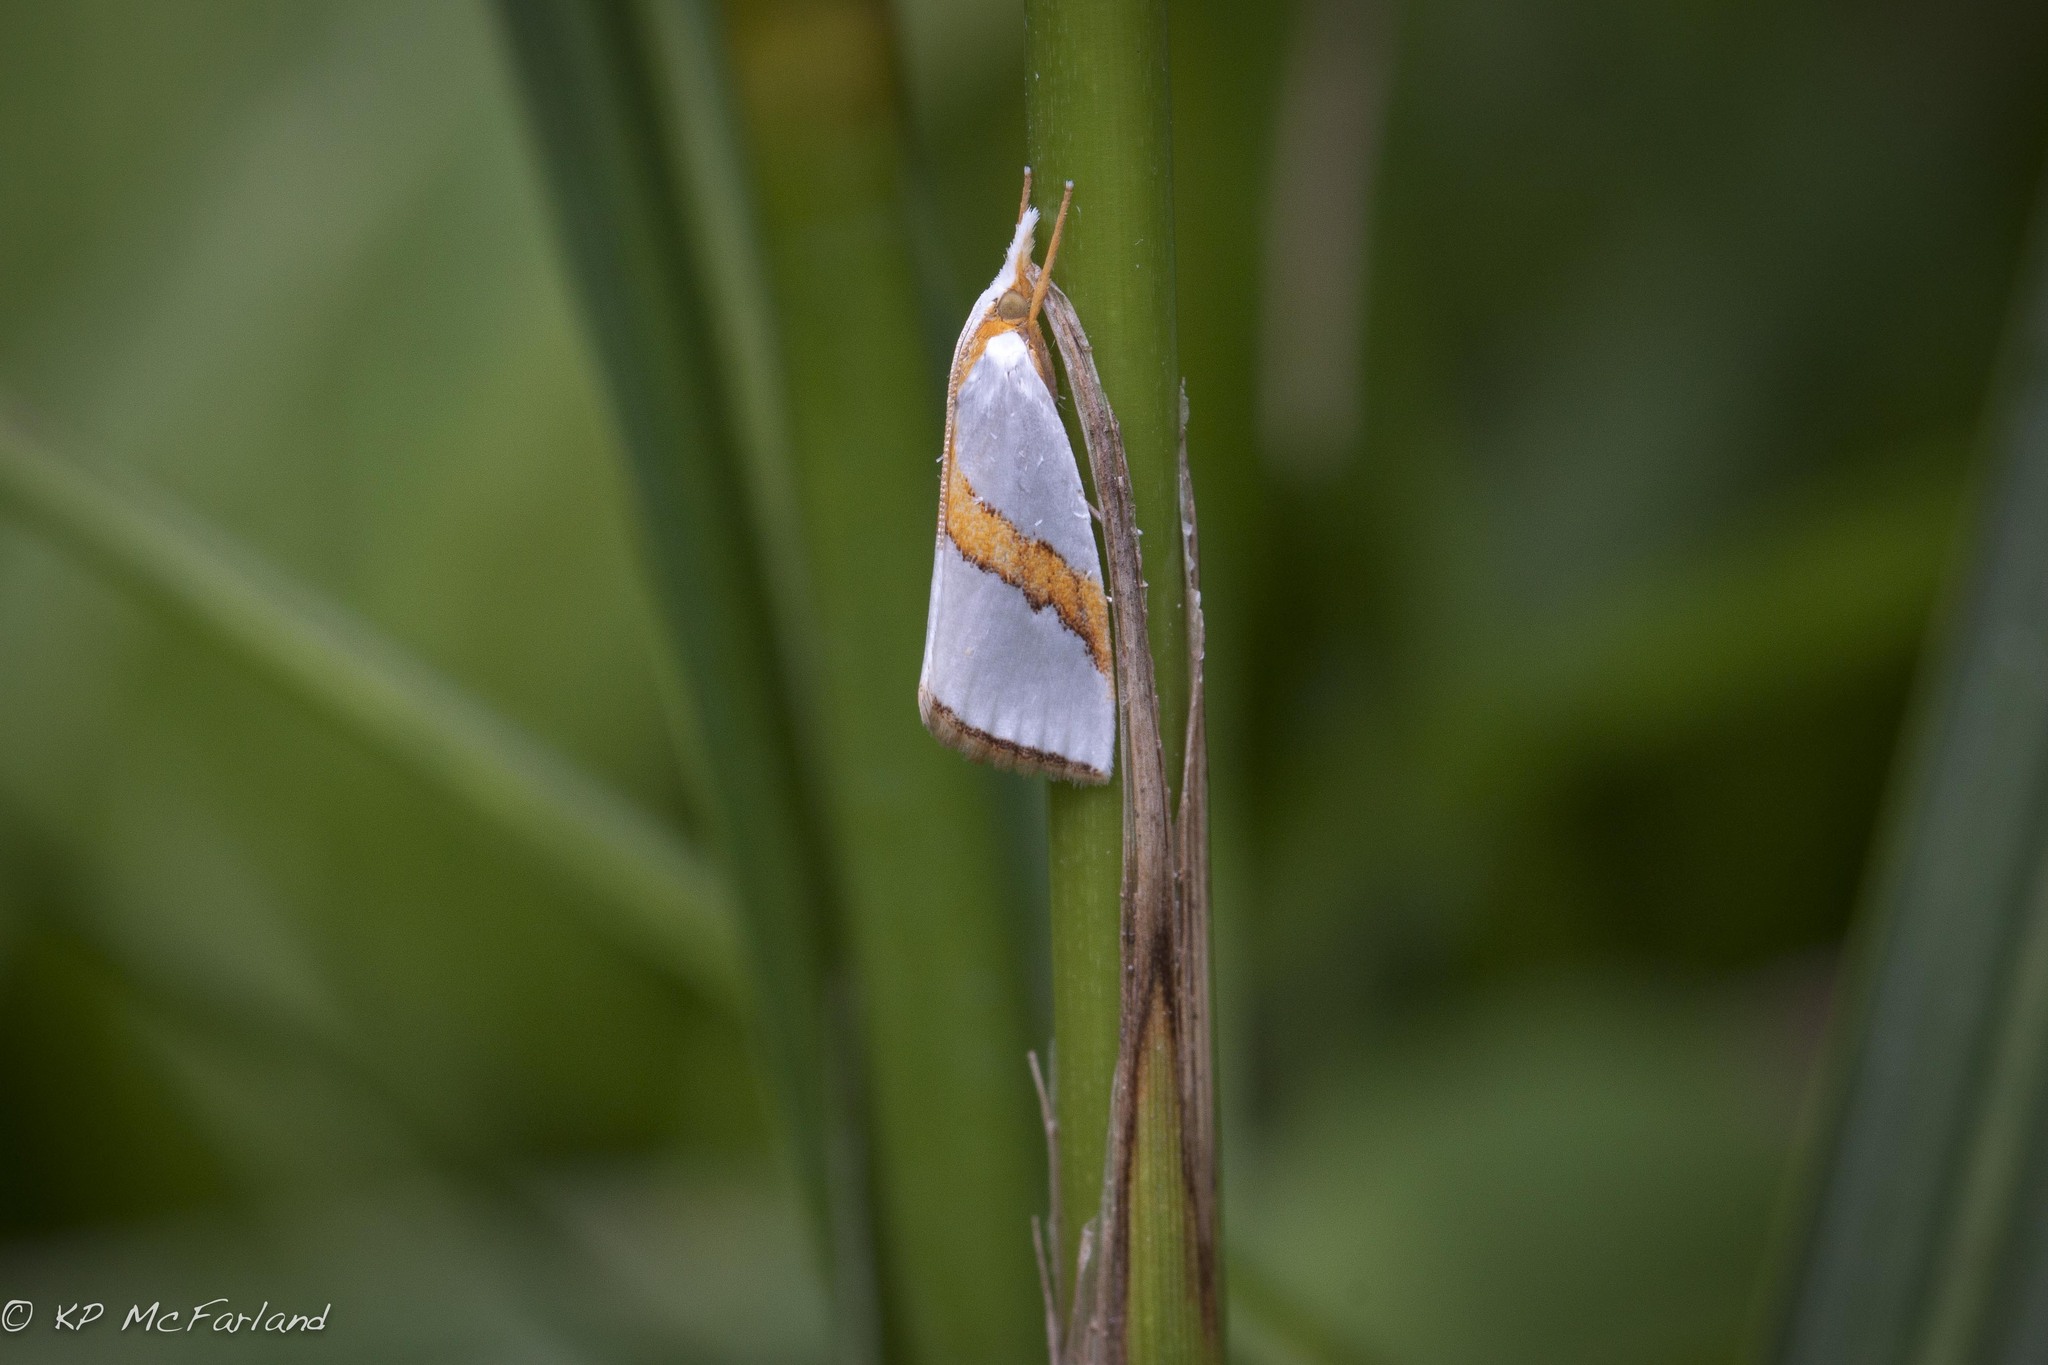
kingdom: Animalia
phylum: Arthropoda
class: Insecta
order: Lepidoptera
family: Crambidae
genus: Vaxi
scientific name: Vaxi critica
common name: Straight-lined vaxi moth
